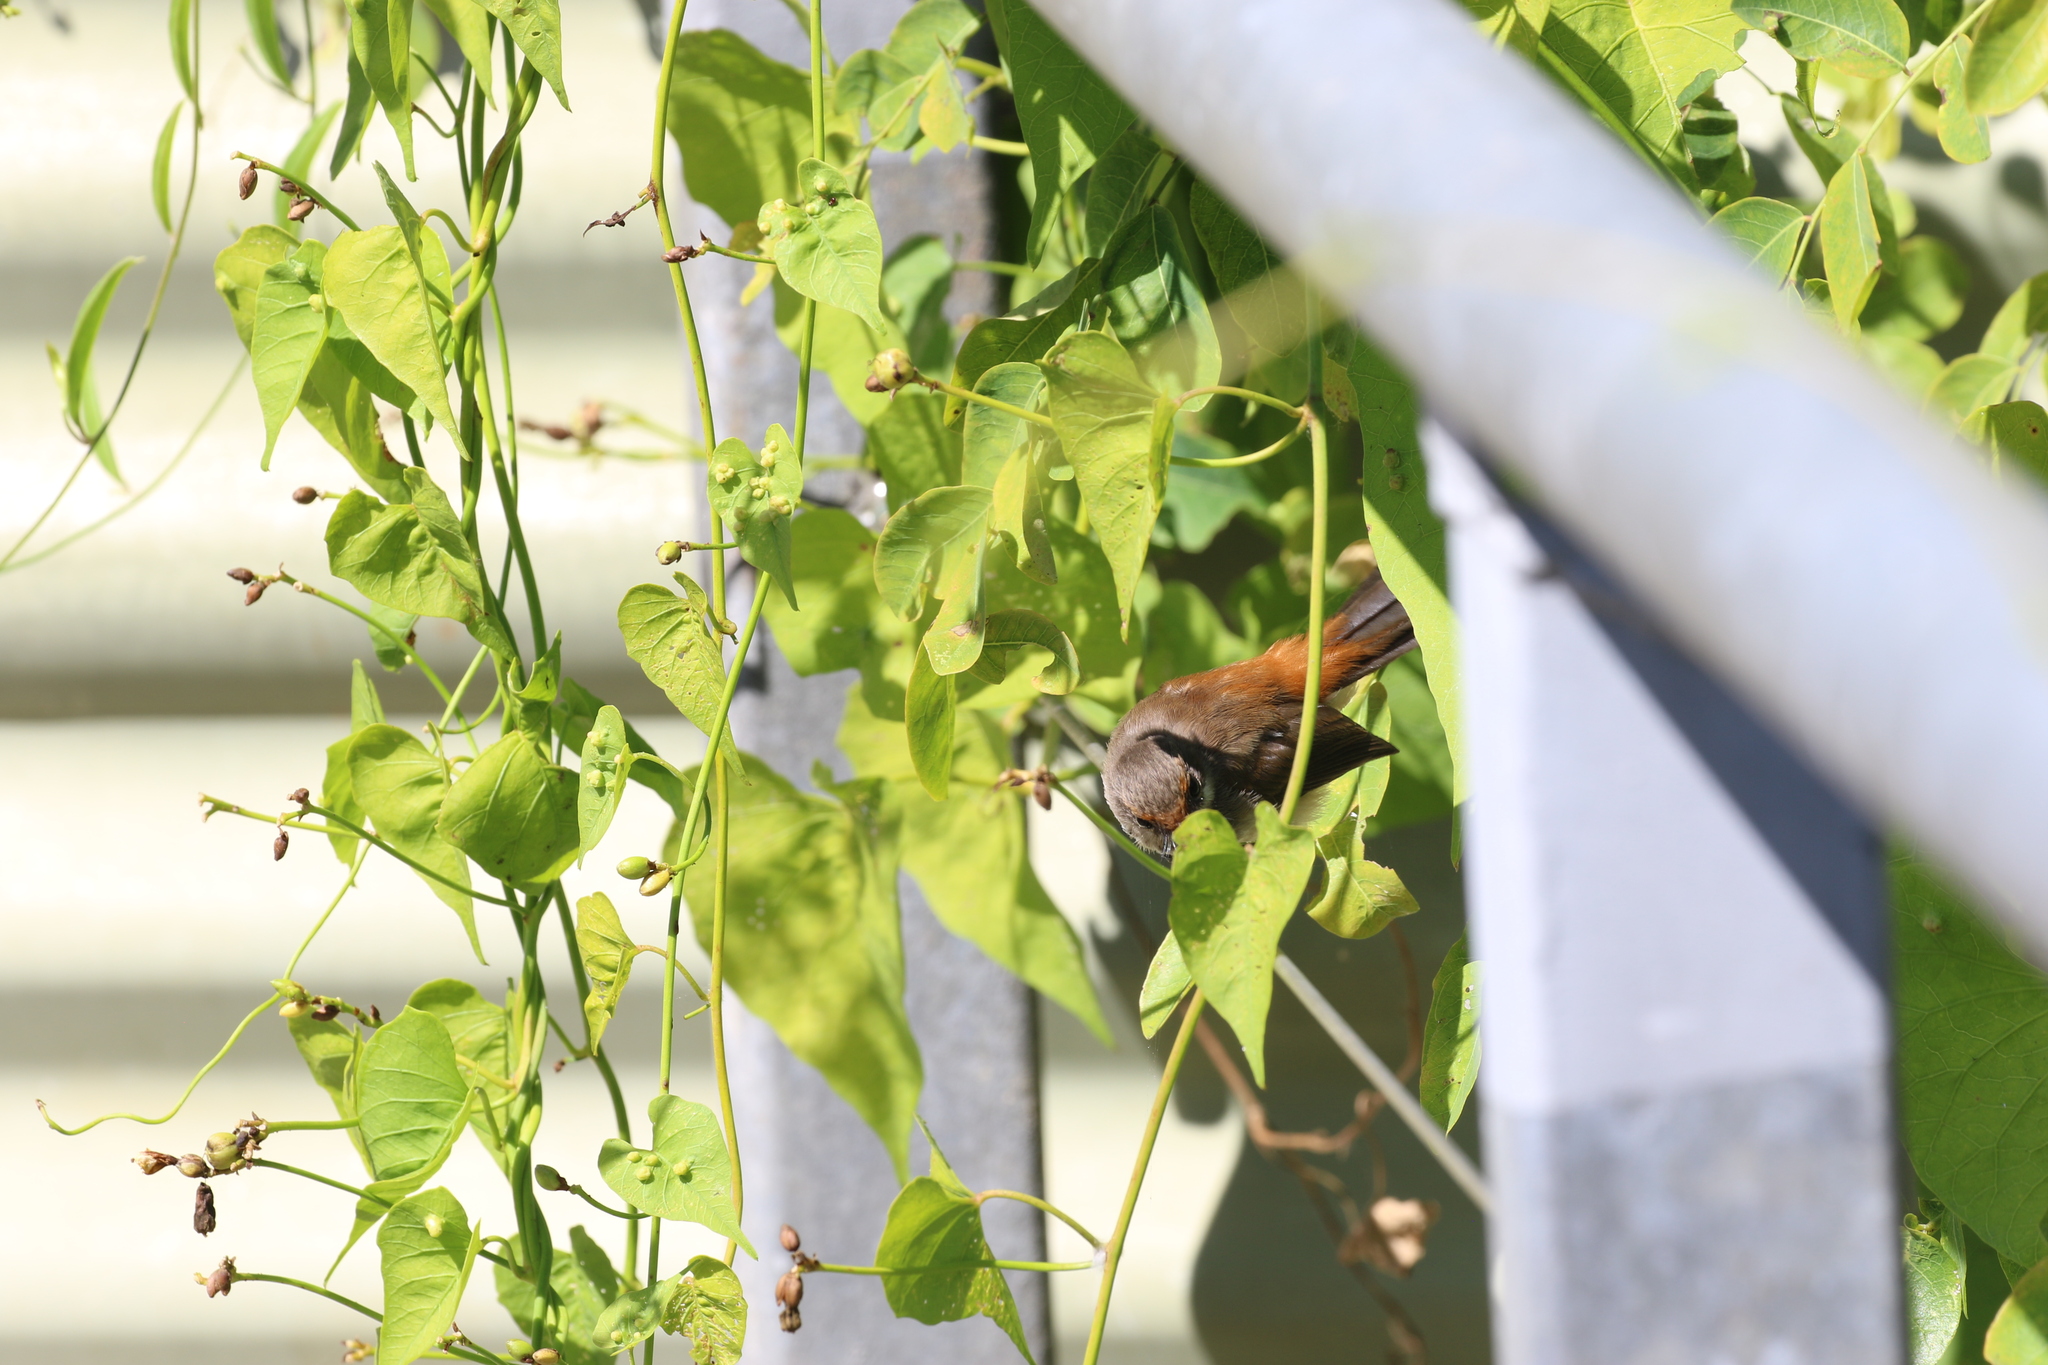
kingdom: Animalia
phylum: Chordata
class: Aves
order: Passeriformes
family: Rhipiduridae
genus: Rhipidura
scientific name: Rhipidura dryas
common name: Arafura fantail
